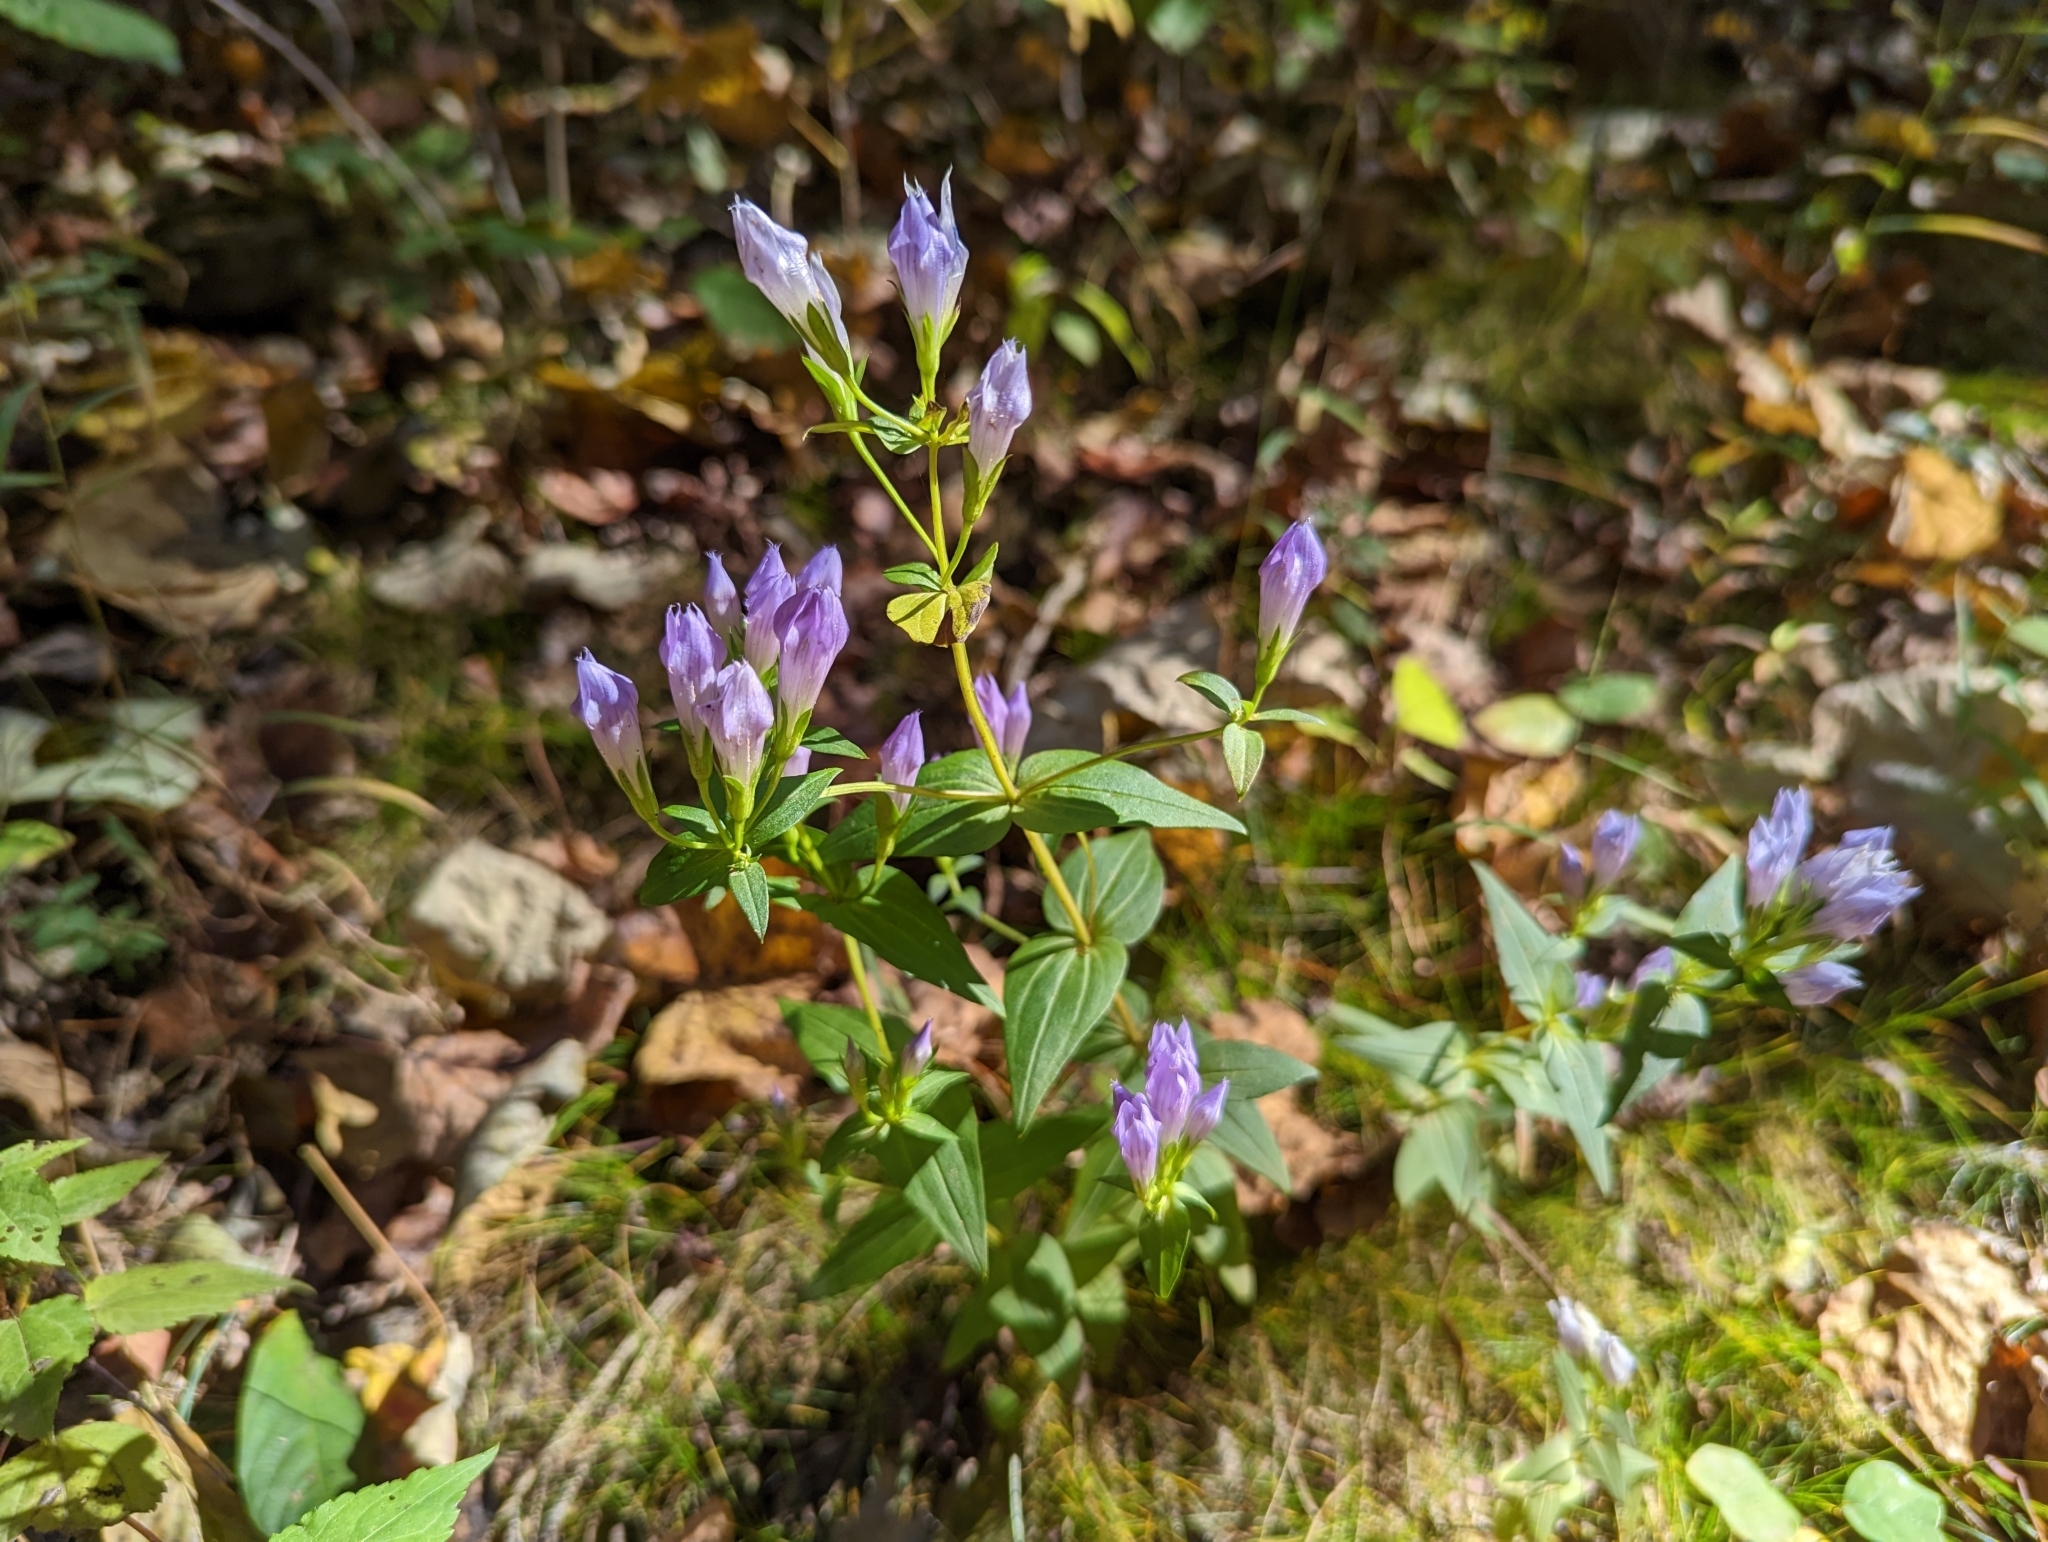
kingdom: Plantae
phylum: Tracheophyta
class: Magnoliopsida
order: Gentianales
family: Gentianaceae
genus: Gentianella
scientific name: Gentianella quinquefolia
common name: Agueweed
